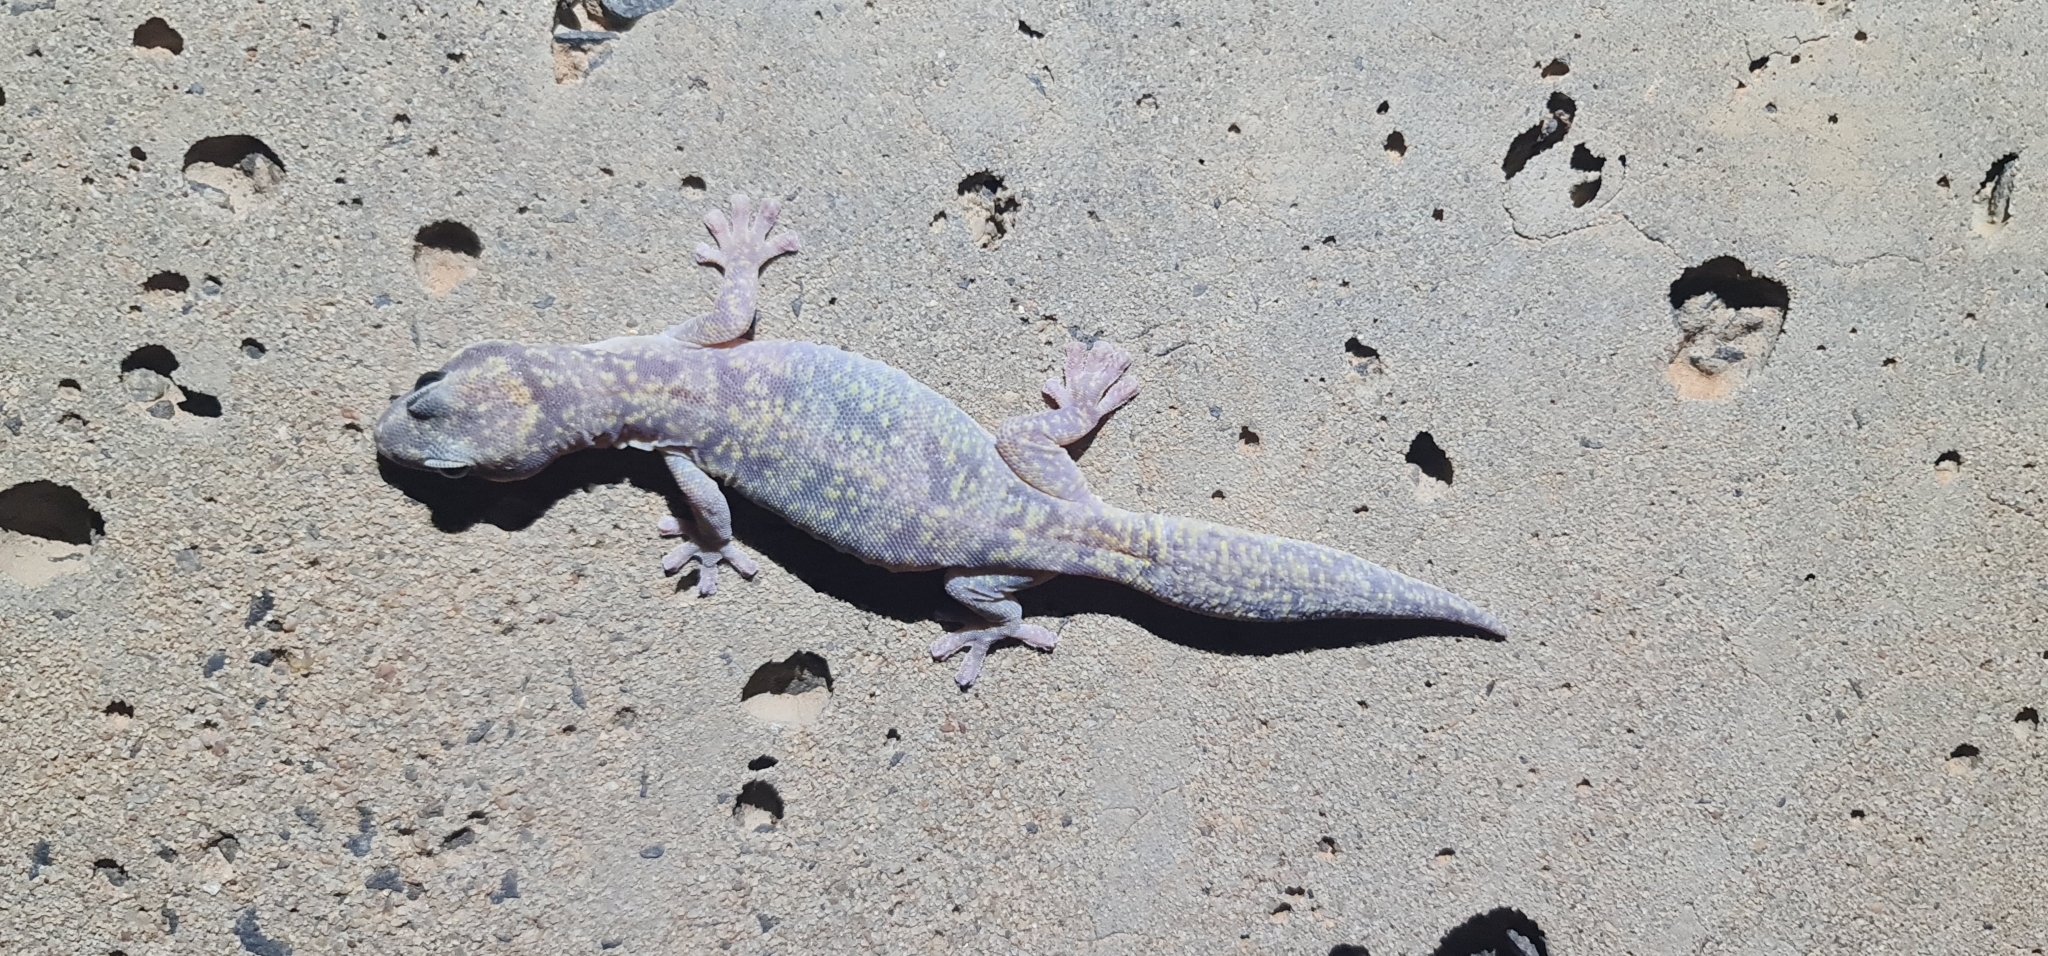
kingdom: Animalia
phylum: Chordata
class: Squamata
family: Diplodactylidae
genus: Oedura
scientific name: Oedura cincta
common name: Inland marbled velvet gecko
